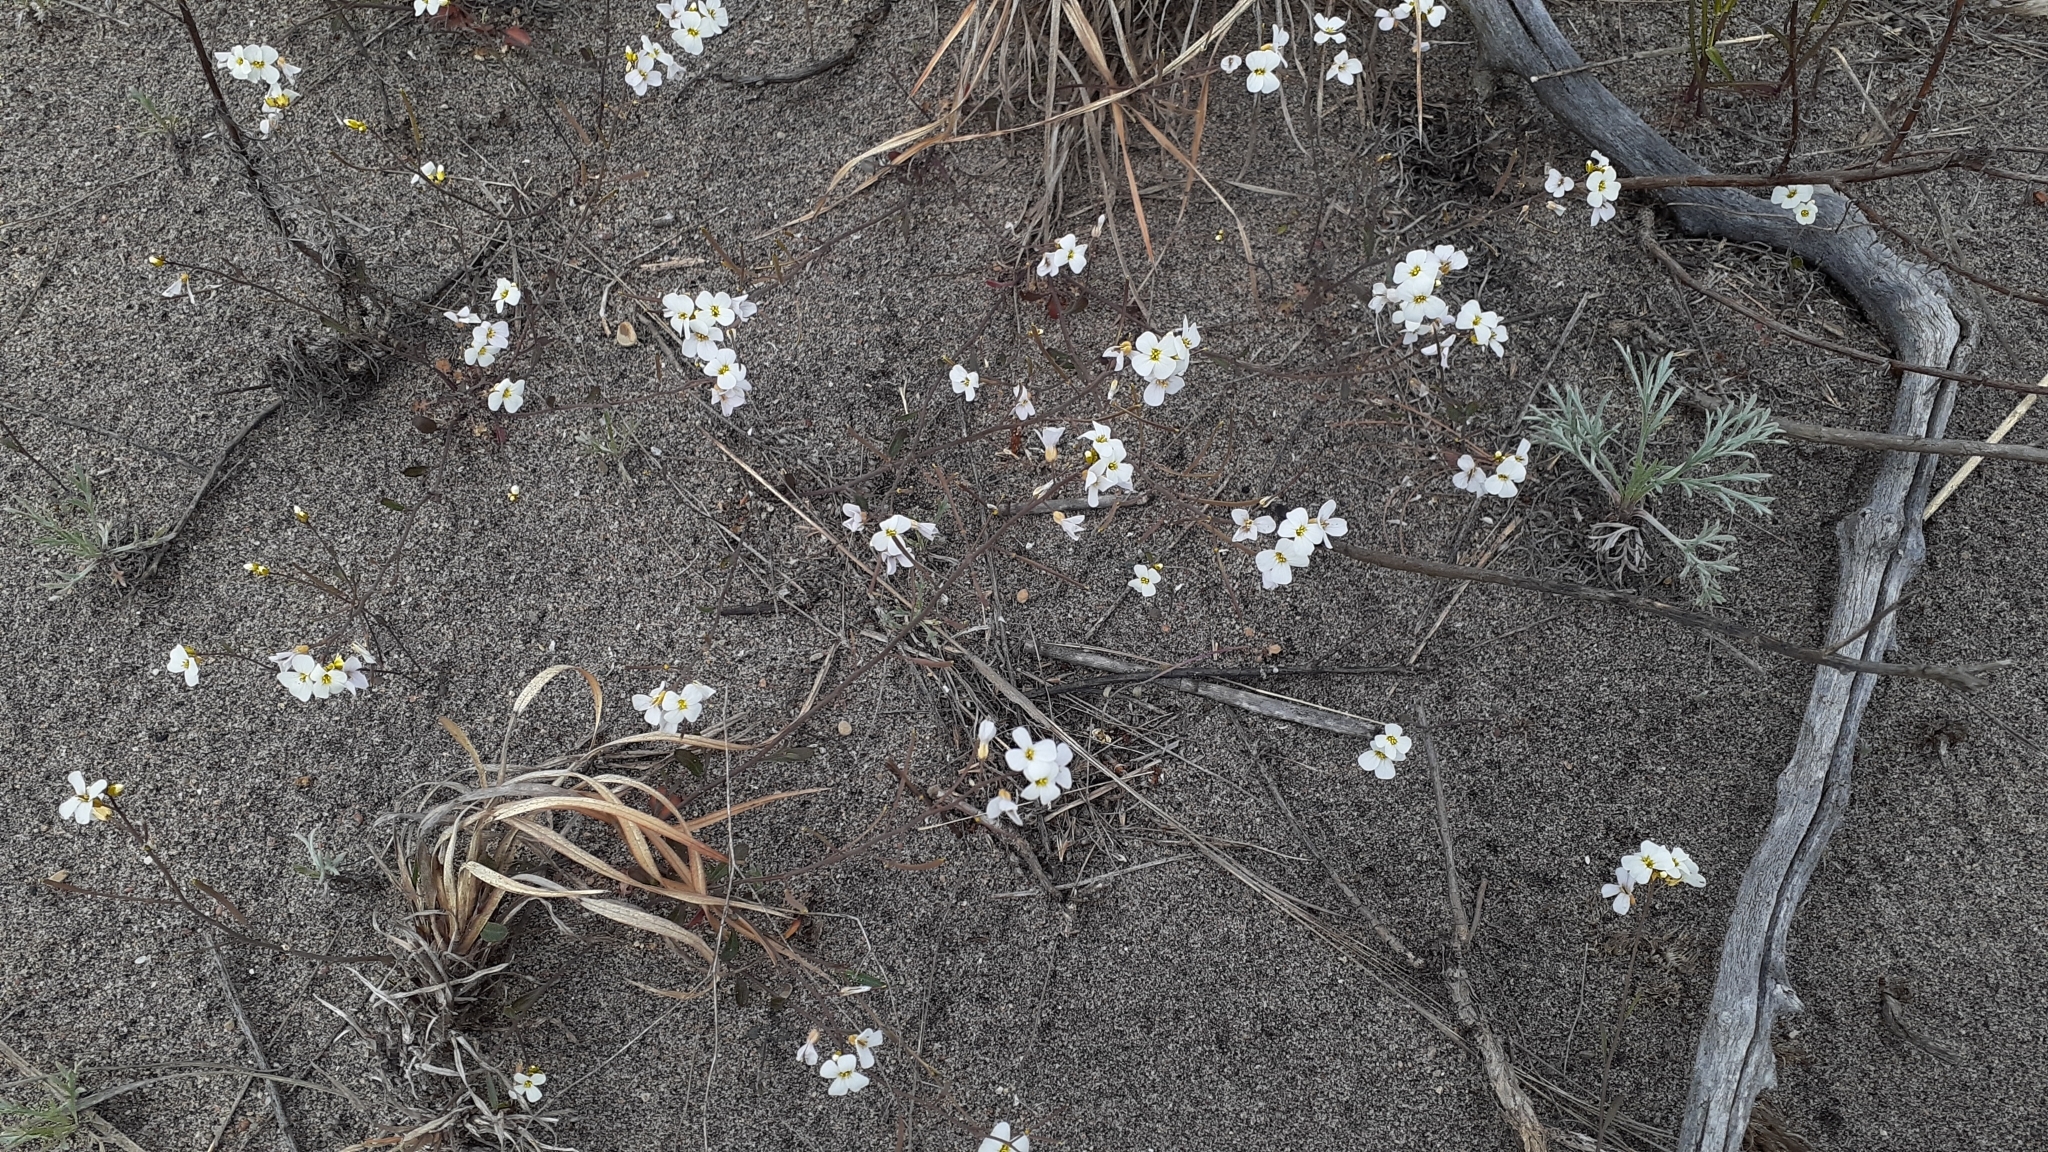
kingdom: Plantae
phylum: Tracheophyta
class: Magnoliopsida
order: Brassicales
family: Brassicaceae
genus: Arabidopsis
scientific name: Arabidopsis lyrata
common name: Lyrate rockcress
